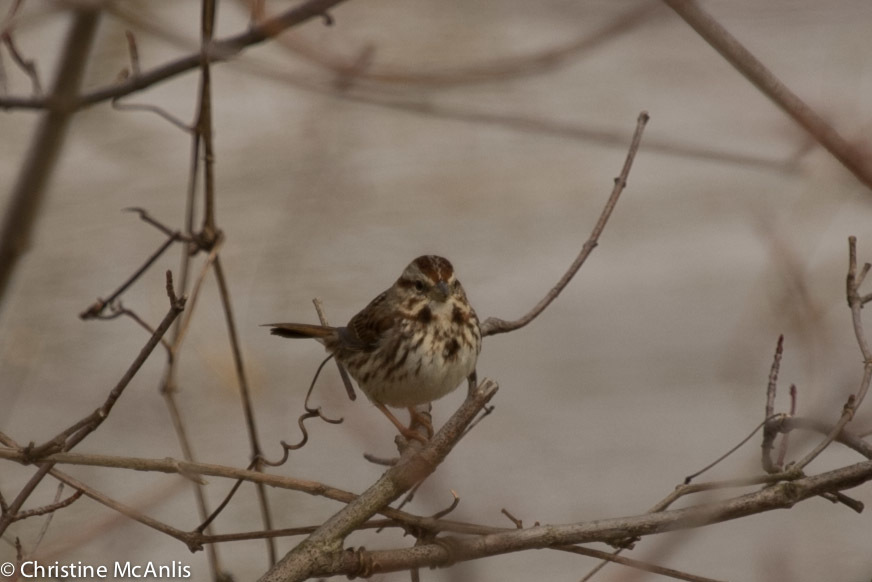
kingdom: Animalia
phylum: Chordata
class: Aves
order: Passeriformes
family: Passerellidae
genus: Melospiza
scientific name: Melospiza melodia
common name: Song sparrow
